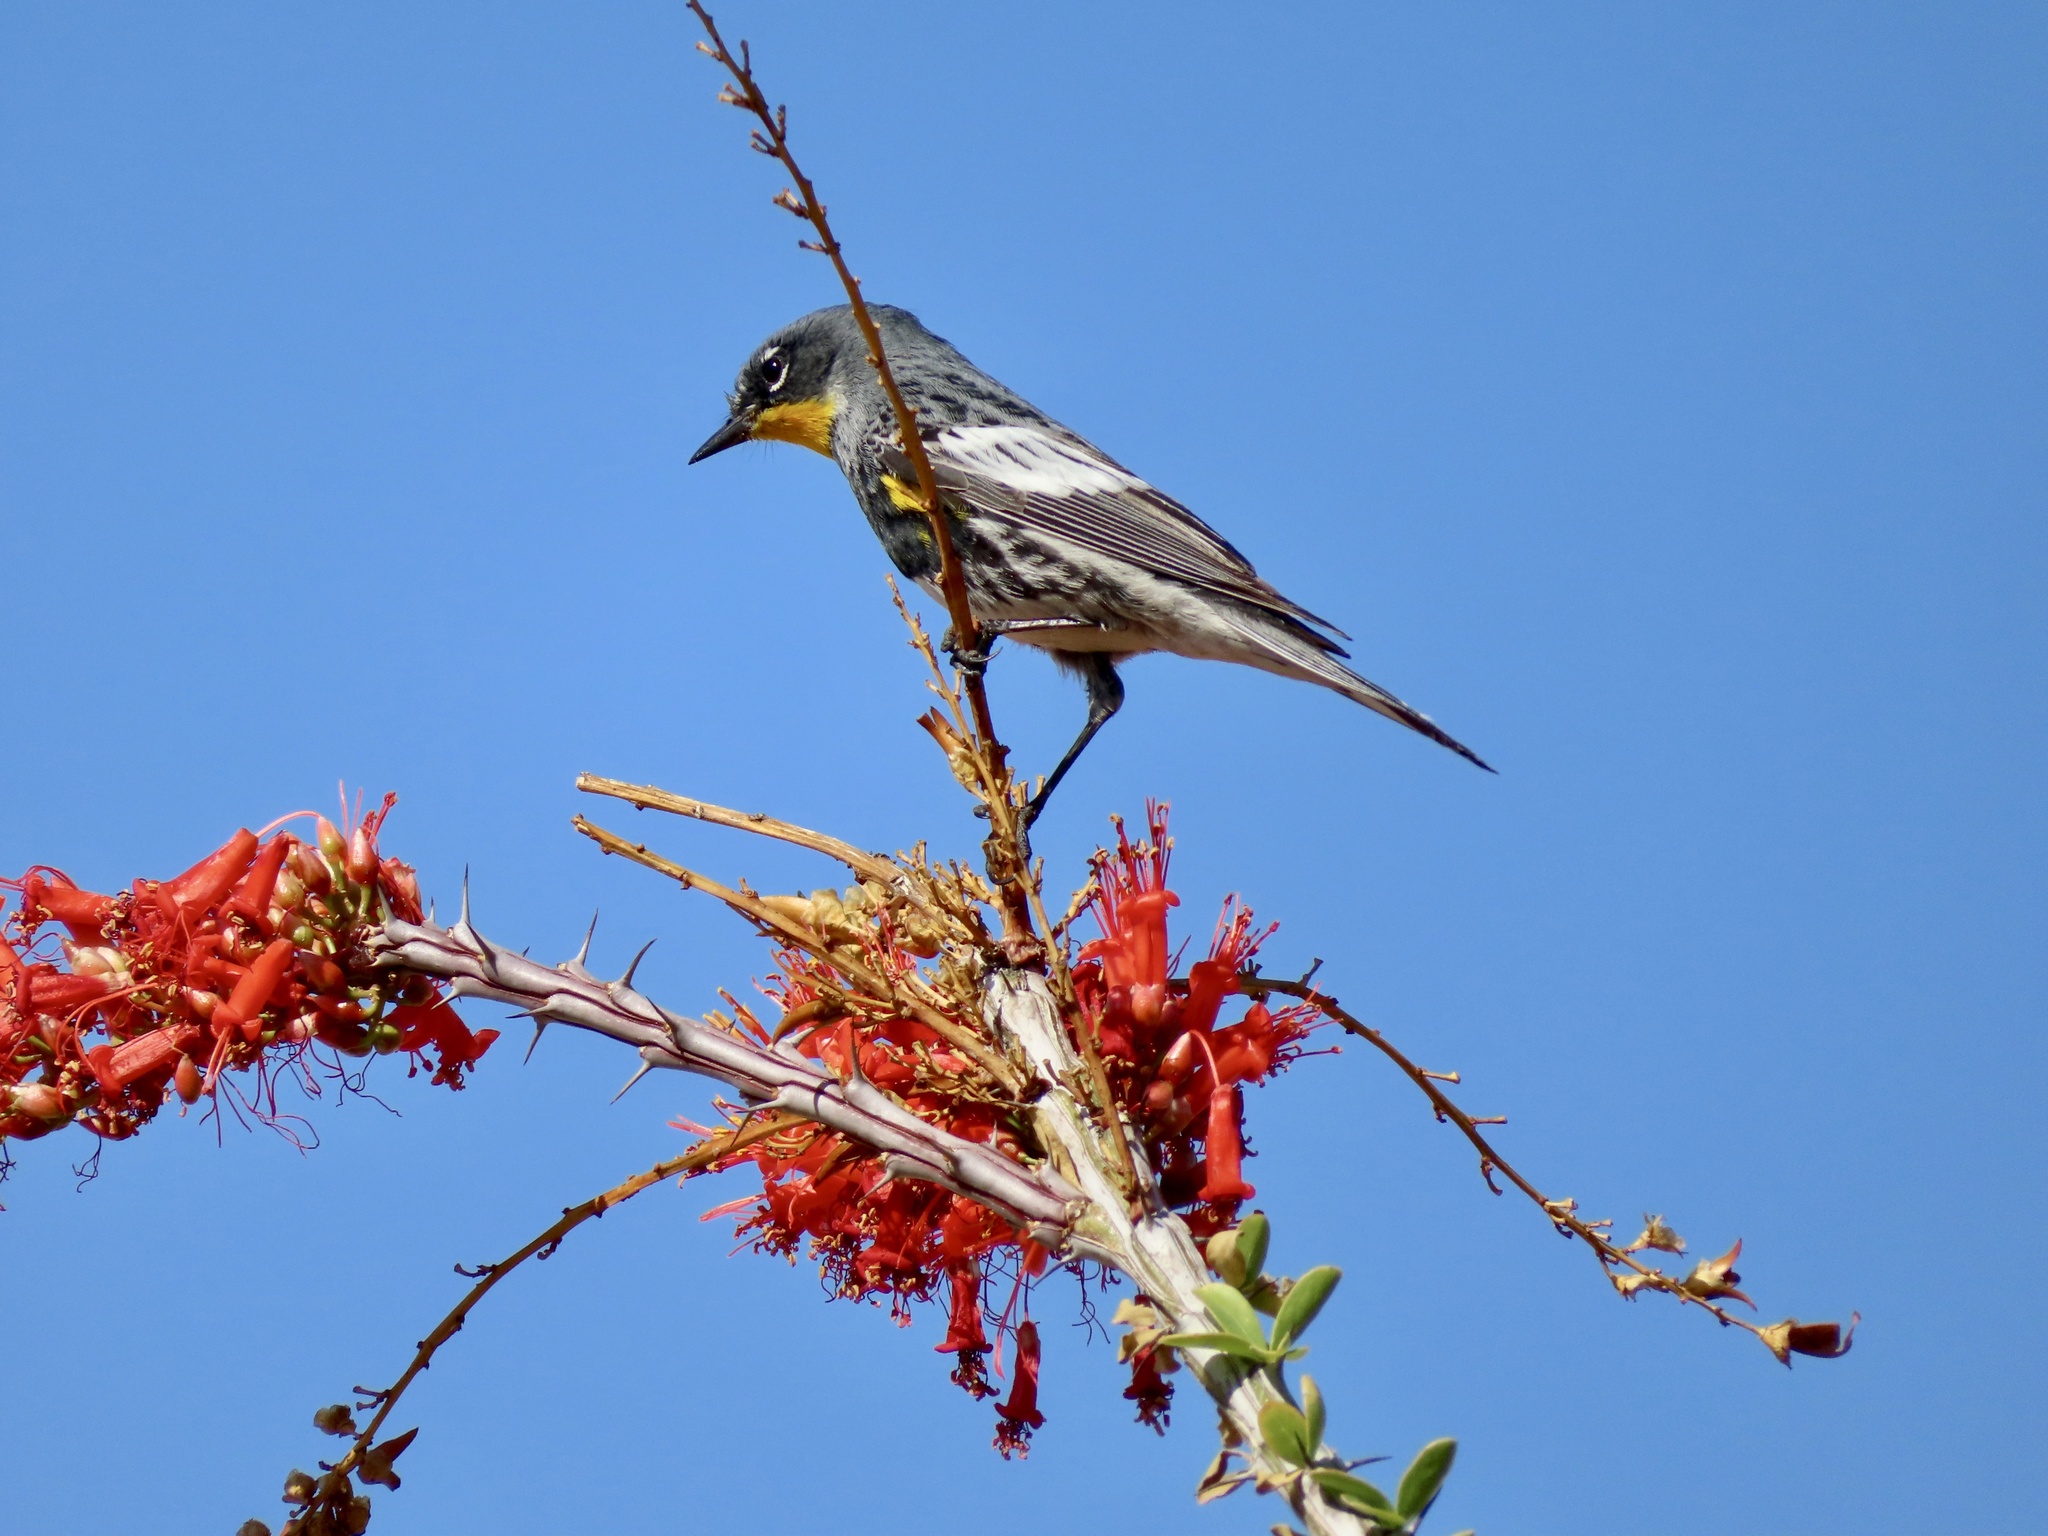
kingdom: Animalia
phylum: Chordata
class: Aves
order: Passeriformes
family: Parulidae
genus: Setophaga
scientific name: Setophaga coronata
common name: Myrtle warbler
